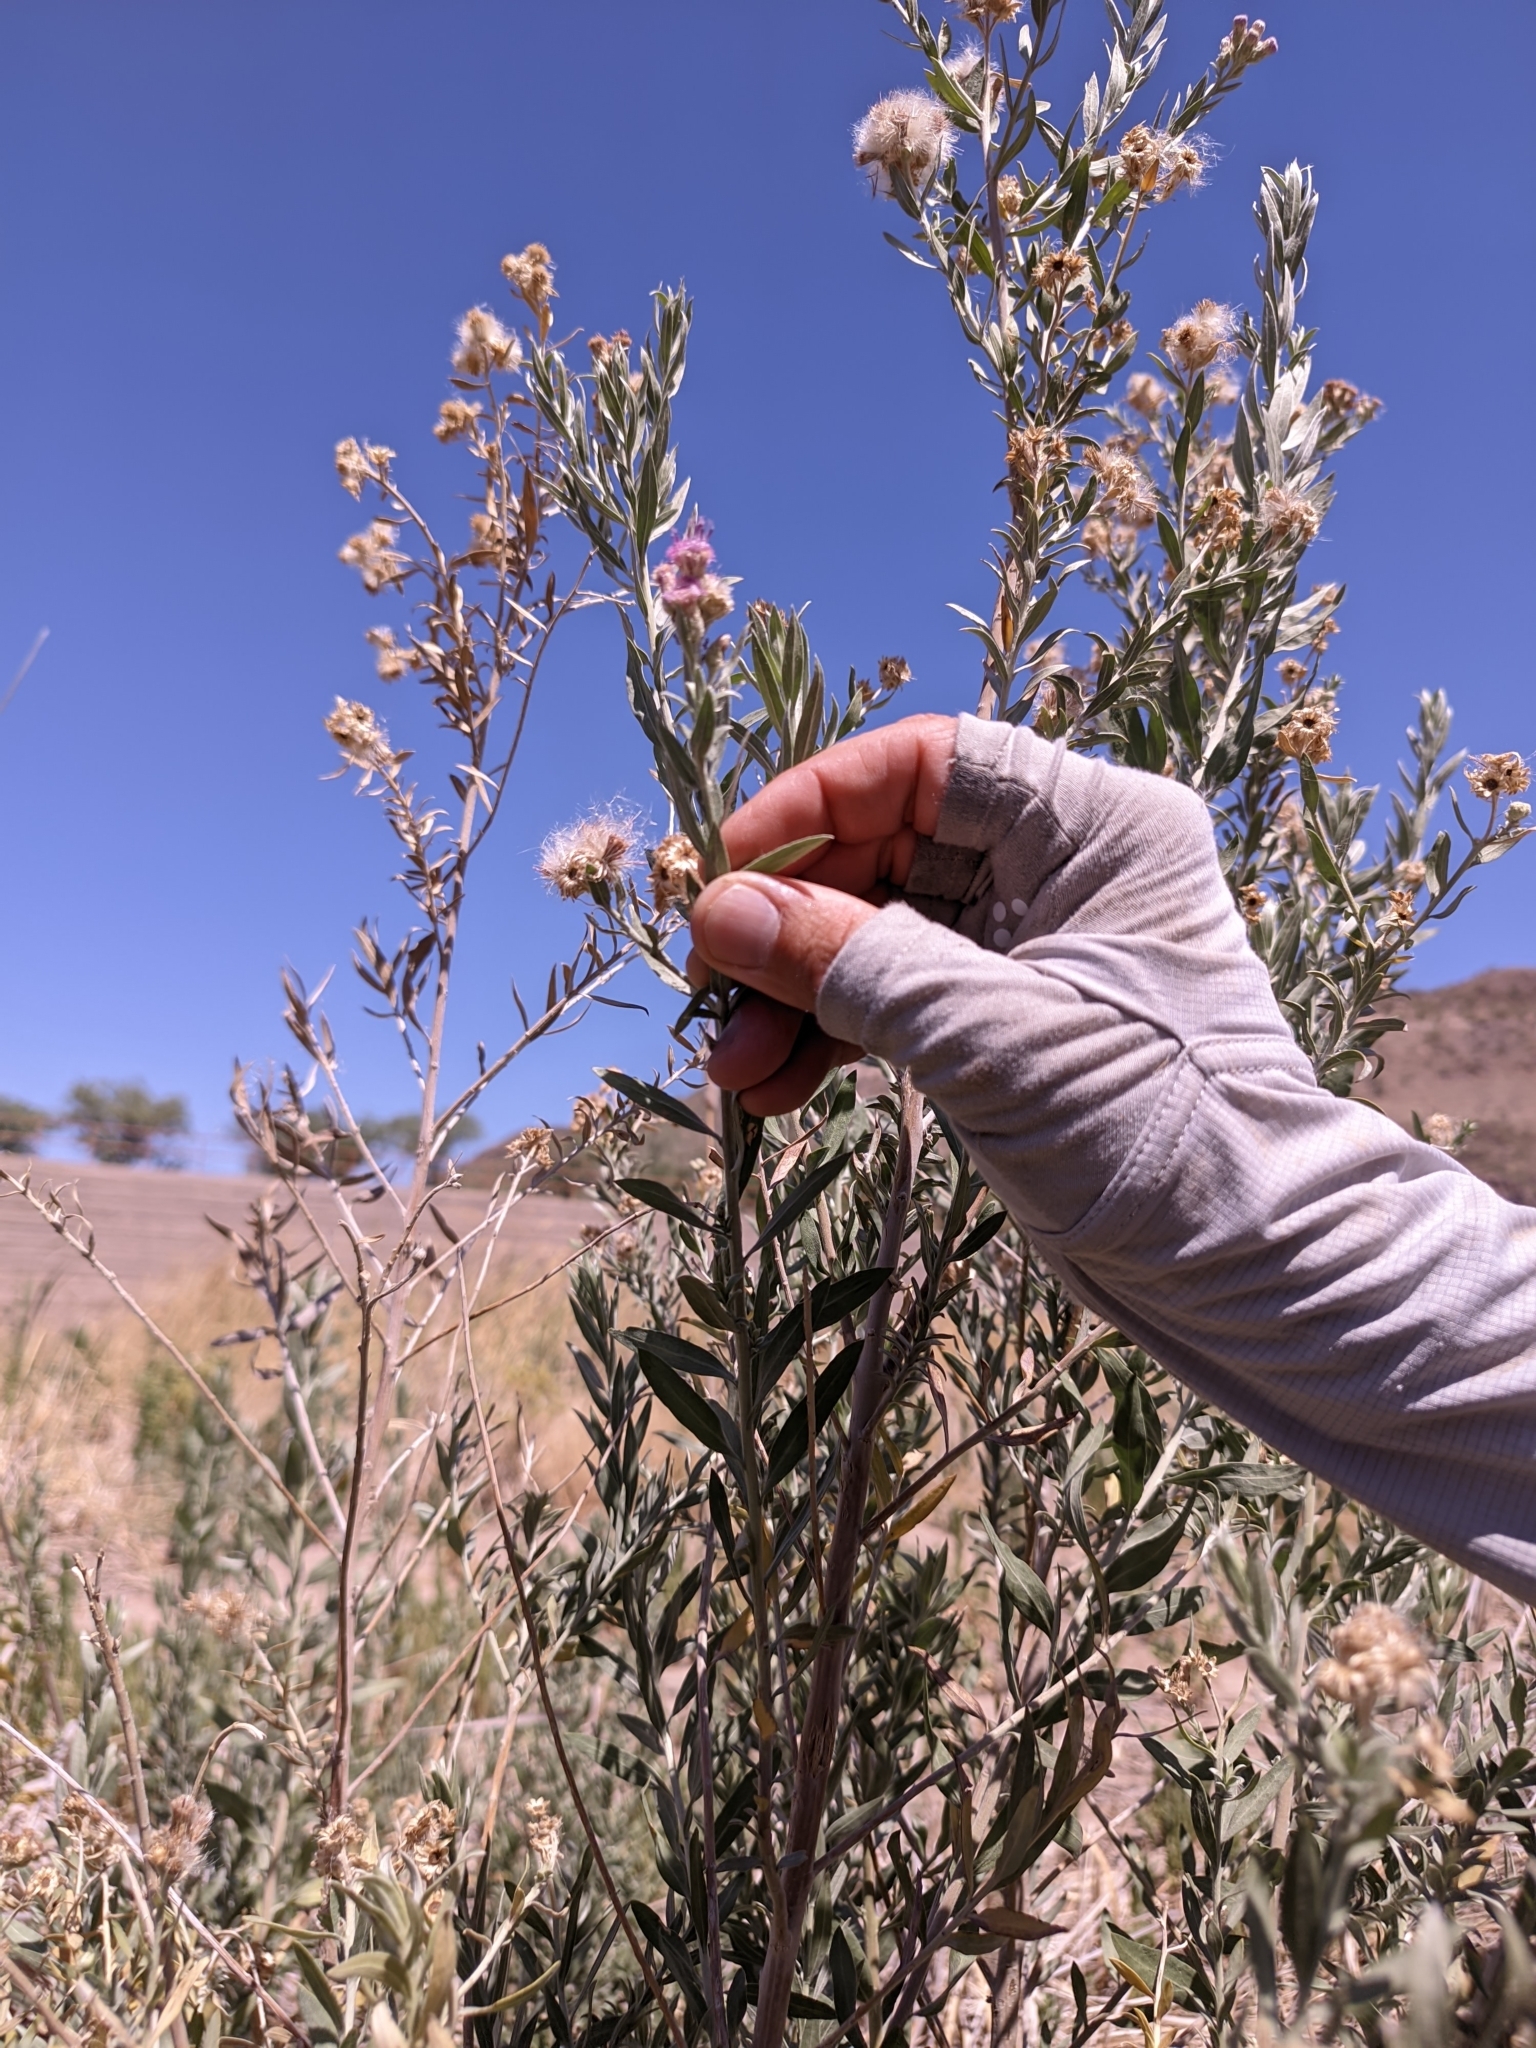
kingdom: Plantae
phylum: Tracheophyta
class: Magnoliopsida
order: Asterales
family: Asteraceae
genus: Pluchea
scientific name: Pluchea sericea
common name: Arrow-weed
